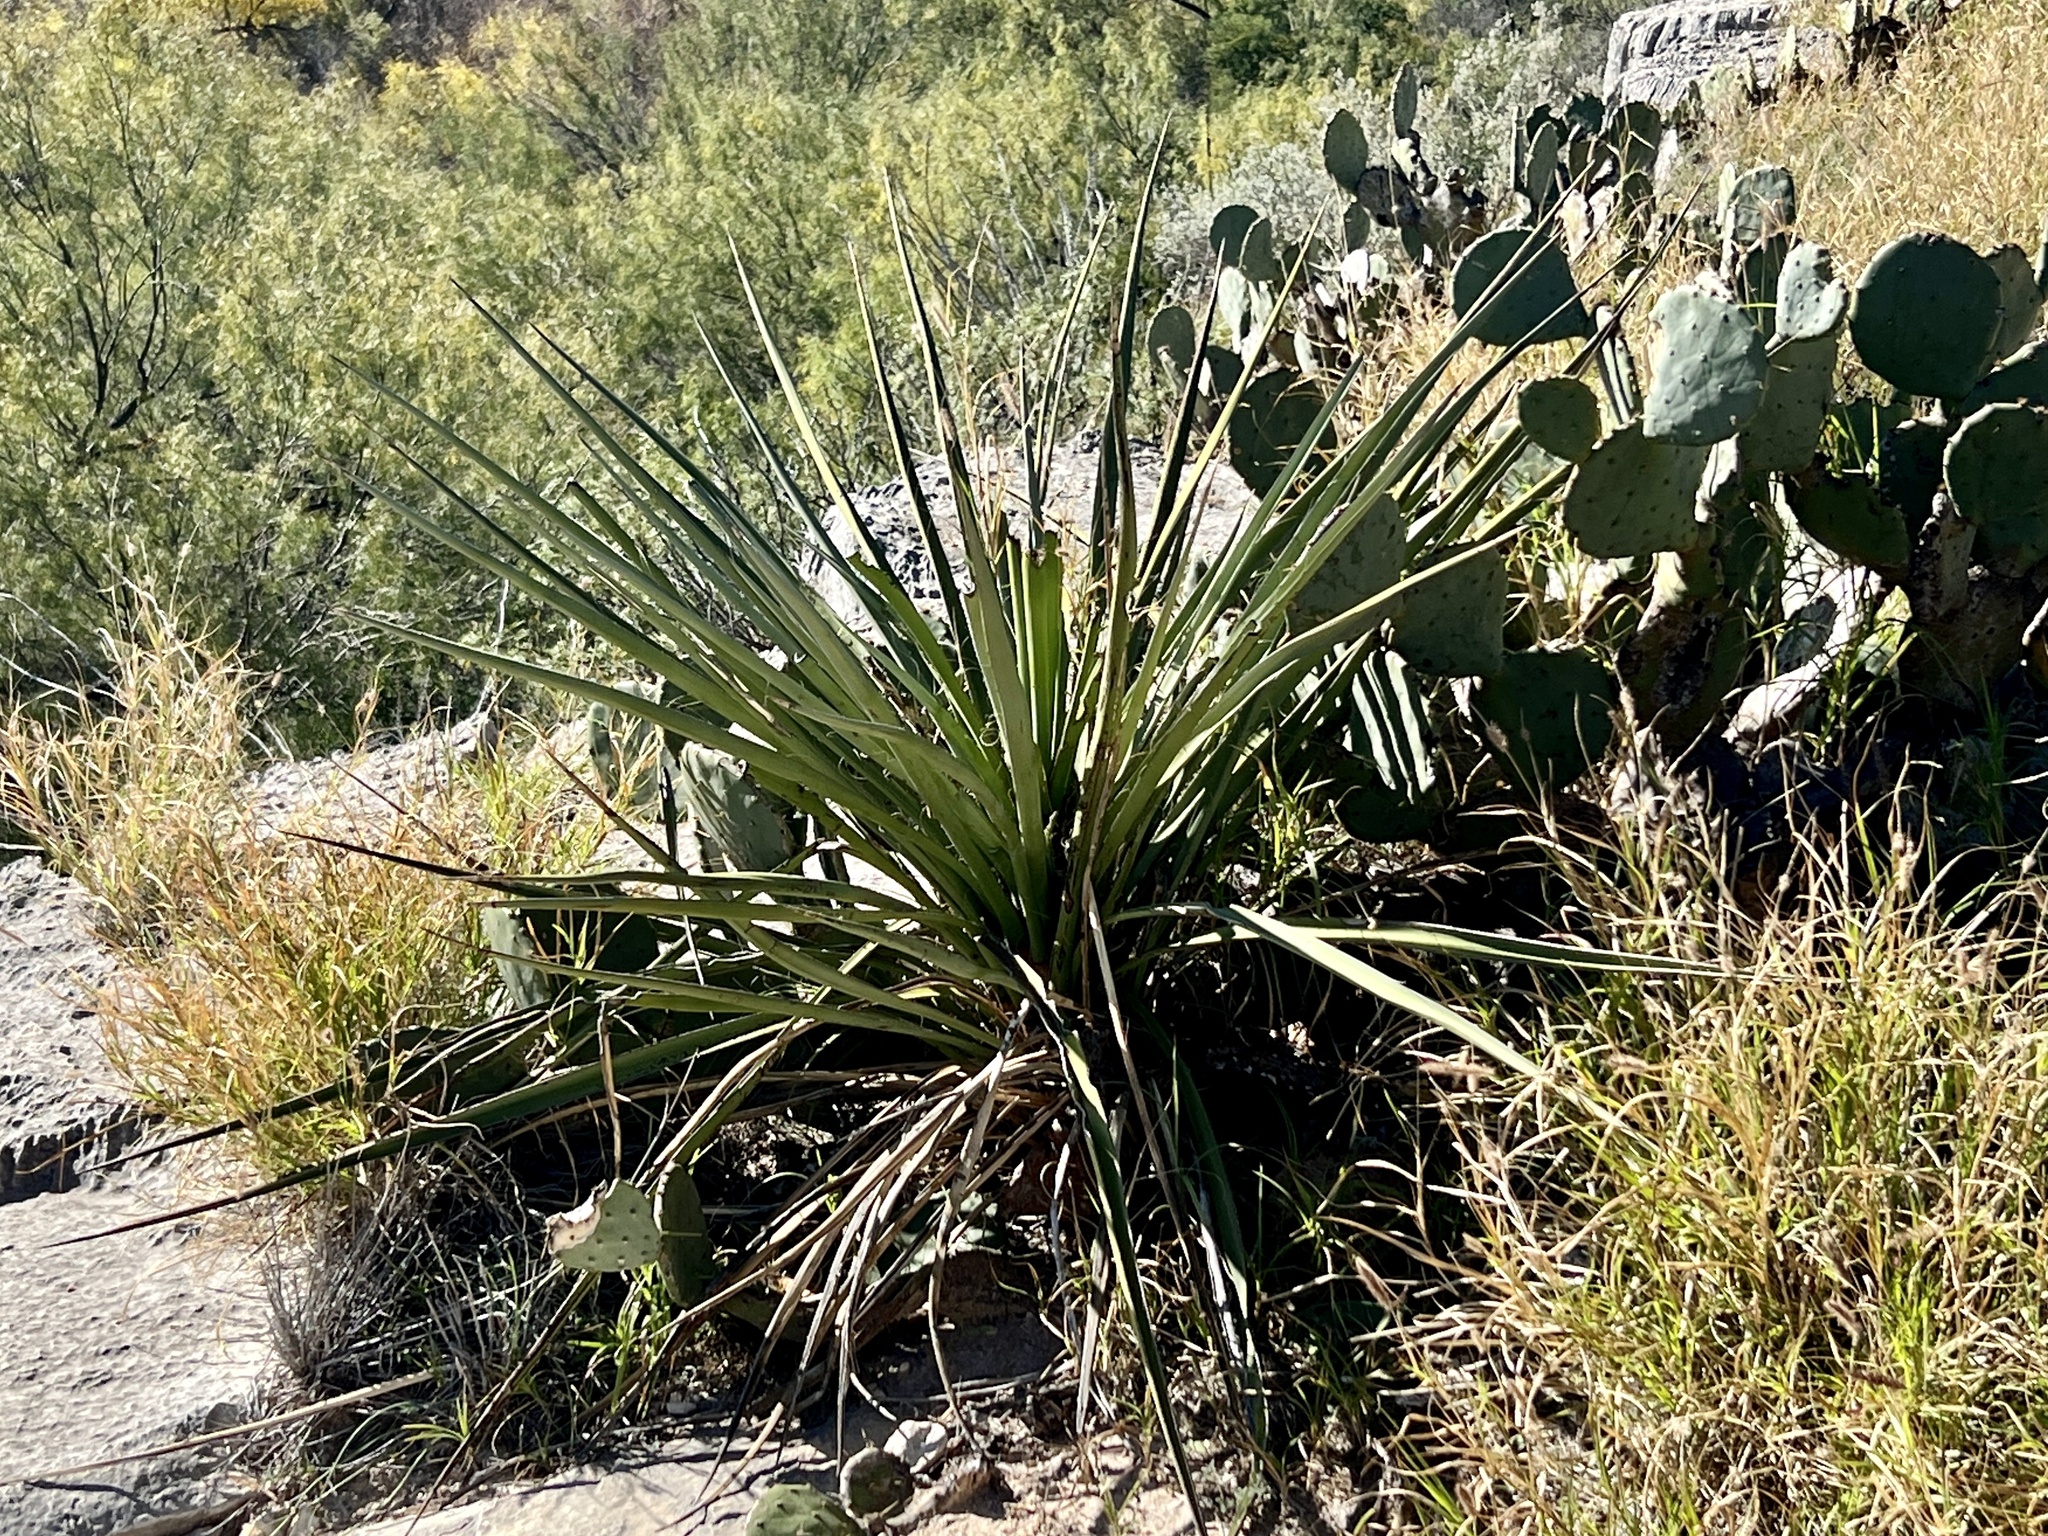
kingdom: Plantae
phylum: Tracheophyta
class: Liliopsida
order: Asparagales
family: Asparagaceae
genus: Yucca
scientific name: Yucca treculiana
